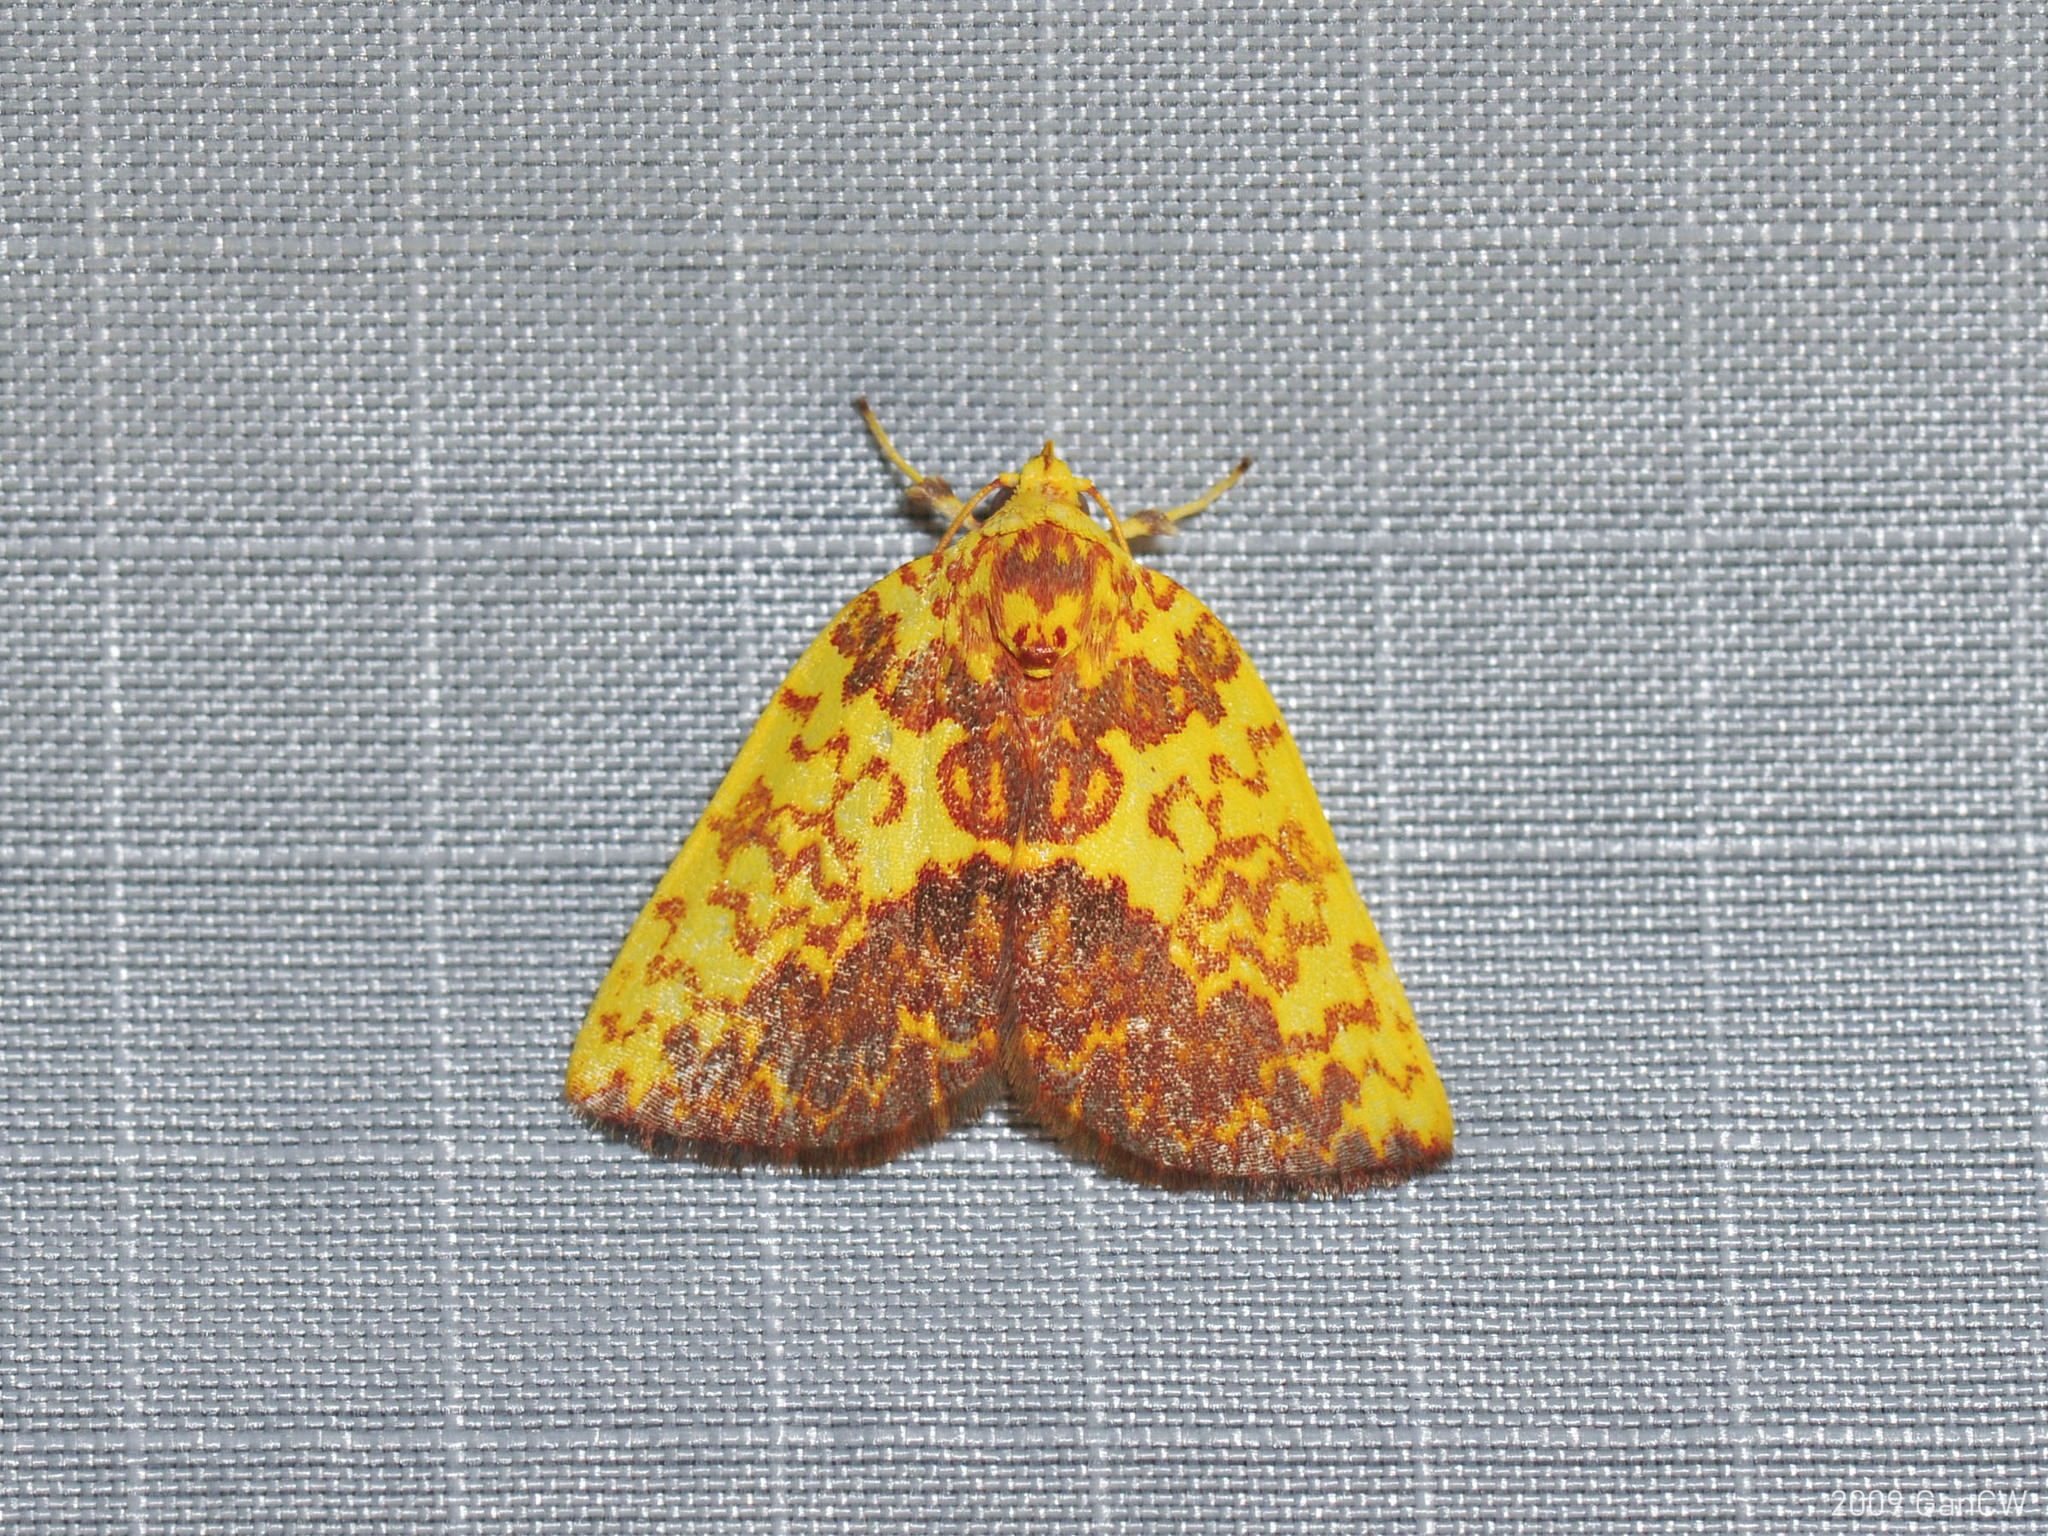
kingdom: Animalia
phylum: Arthropoda
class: Insecta
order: Lepidoptera
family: Nolidae
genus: Siglophora
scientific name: Siglophora ferreilutea
